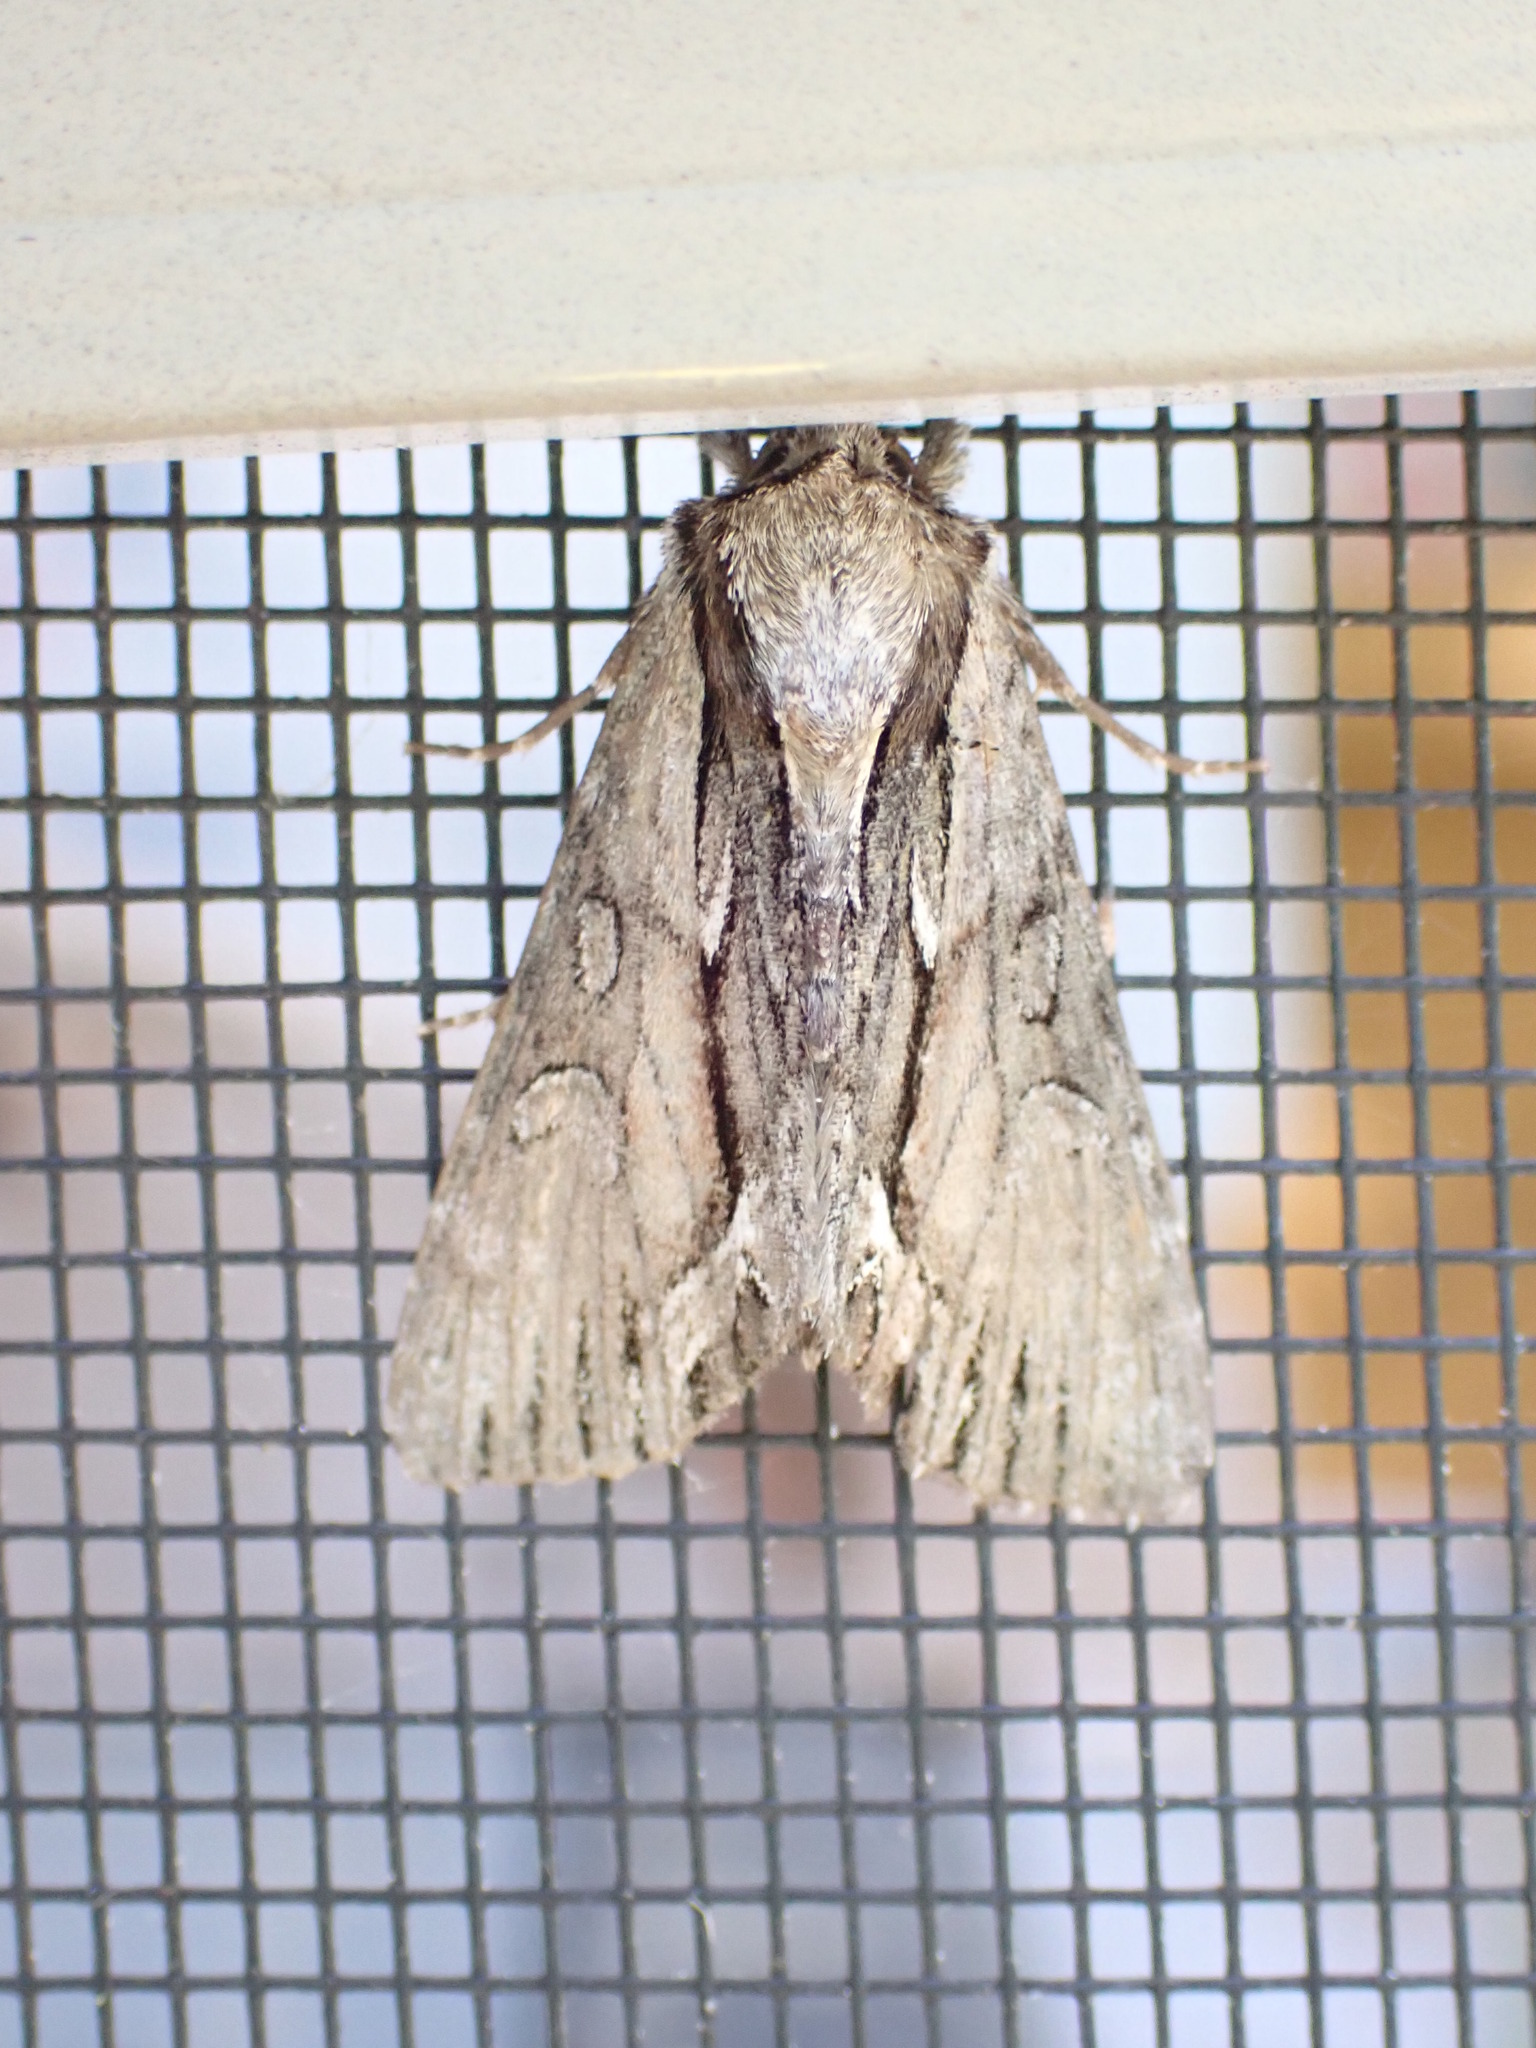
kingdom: Animalia
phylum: Arthropoda
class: Insecta
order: Lepidoptera
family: Noctuidae
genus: Hyppa
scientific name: Hyppa xylinoides
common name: Common hyppa moth
